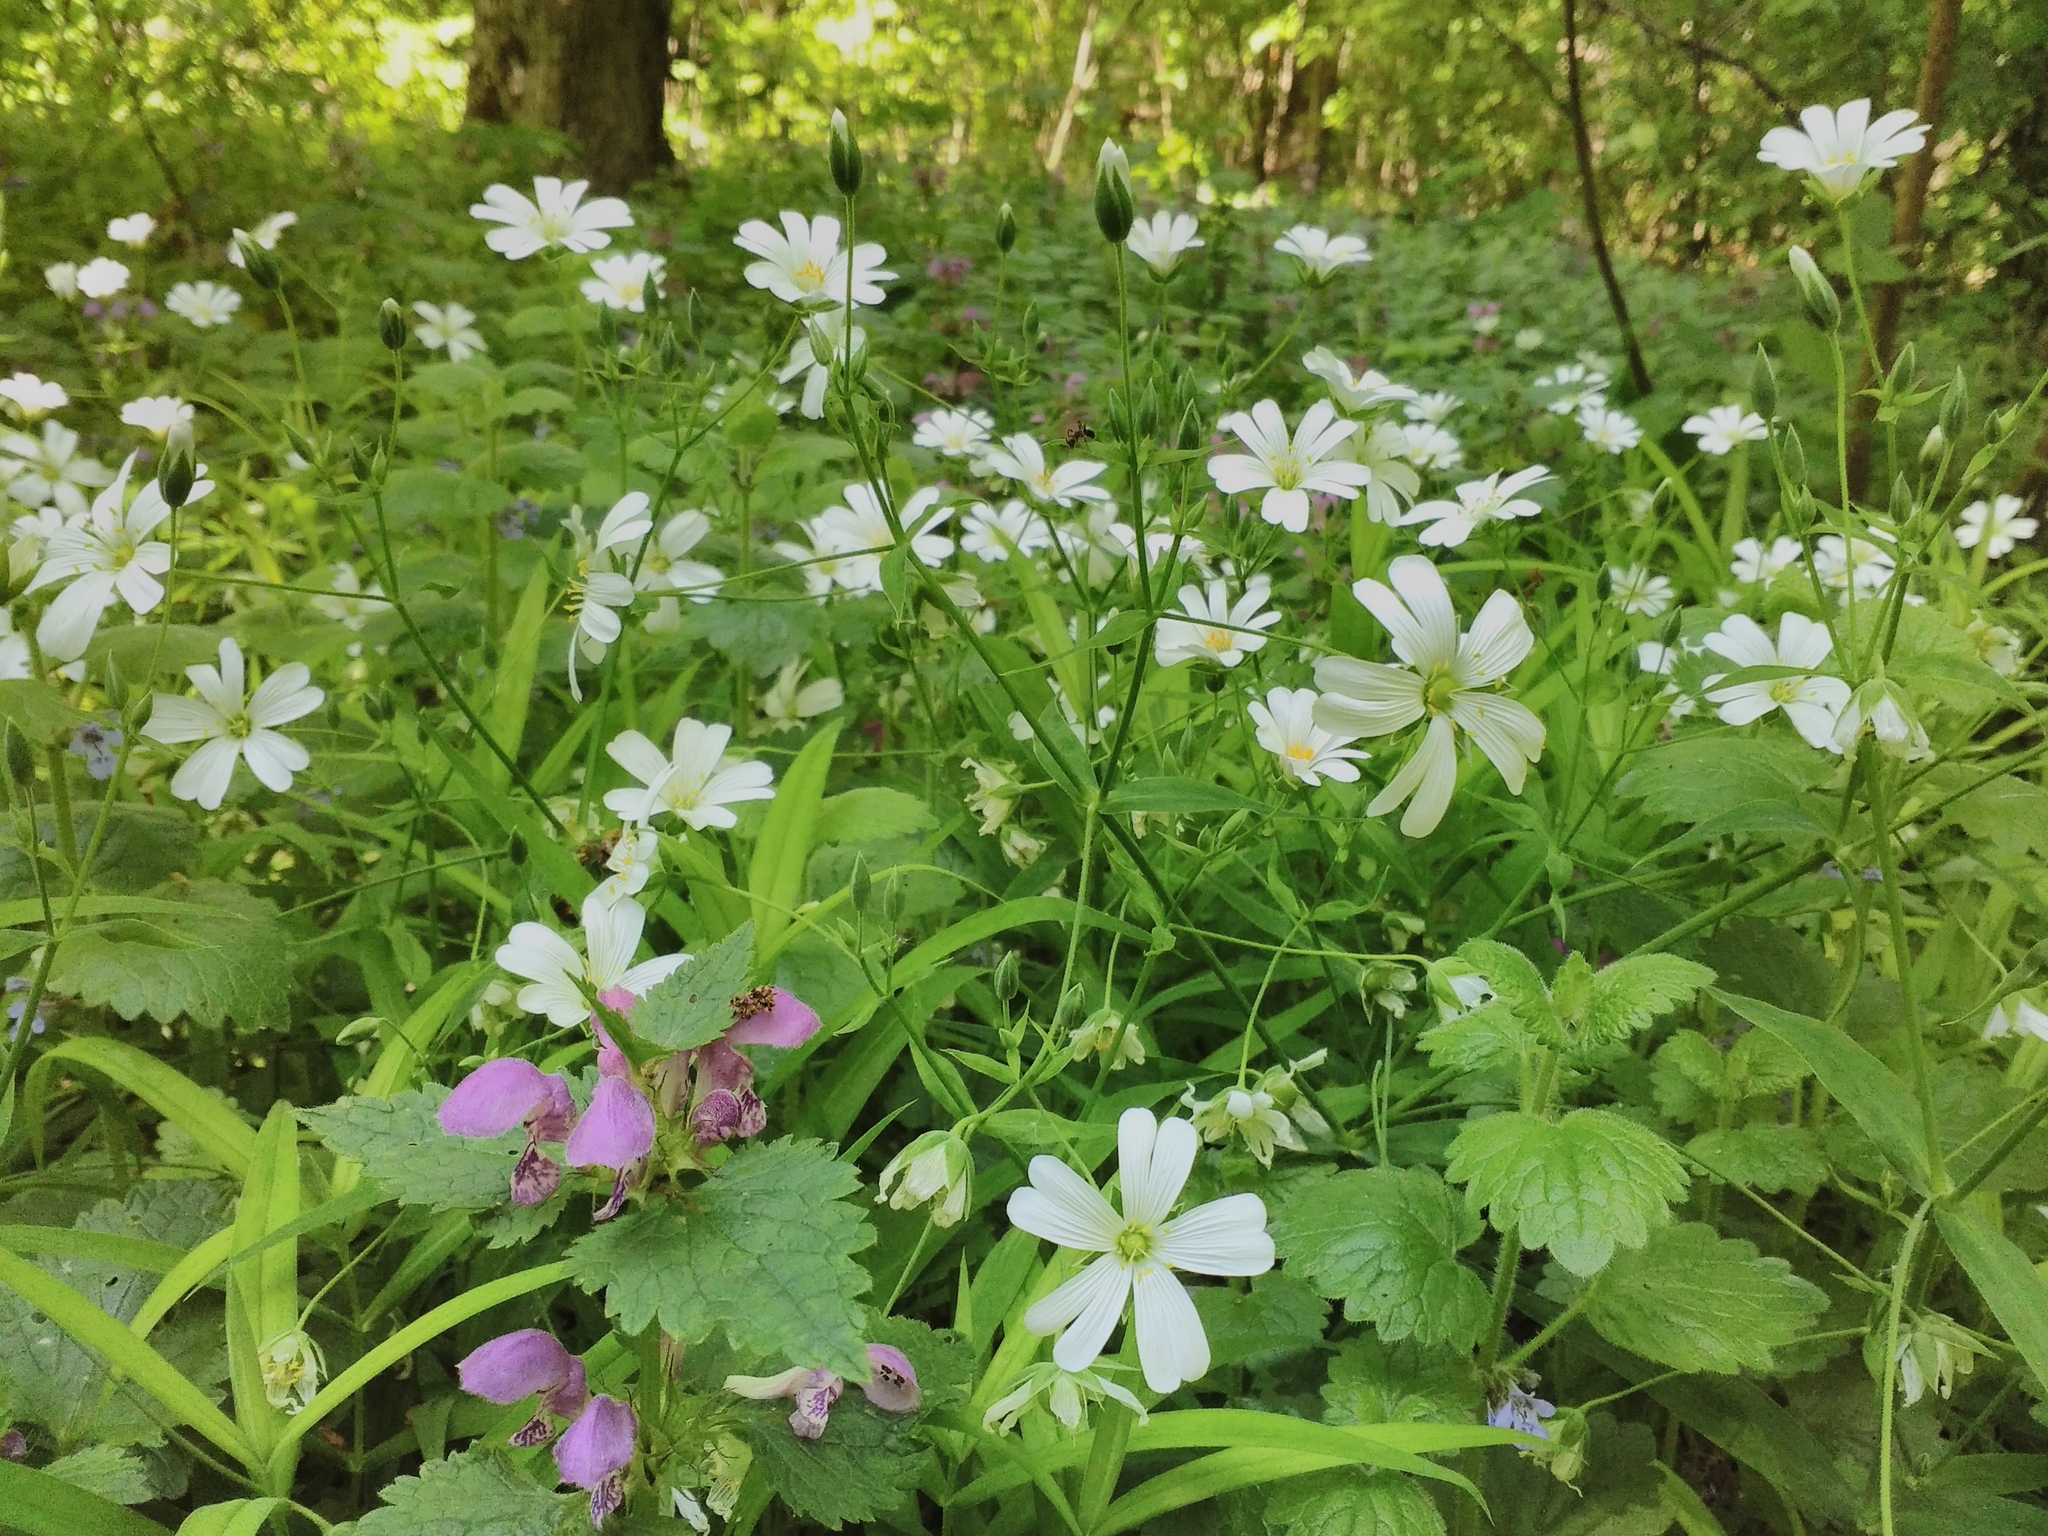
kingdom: Plantae
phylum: Tracheophyta
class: Magnoliopsida
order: Caryophyllales
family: Caryophyllaceae
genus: Rabelera
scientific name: Rabelera holostea
